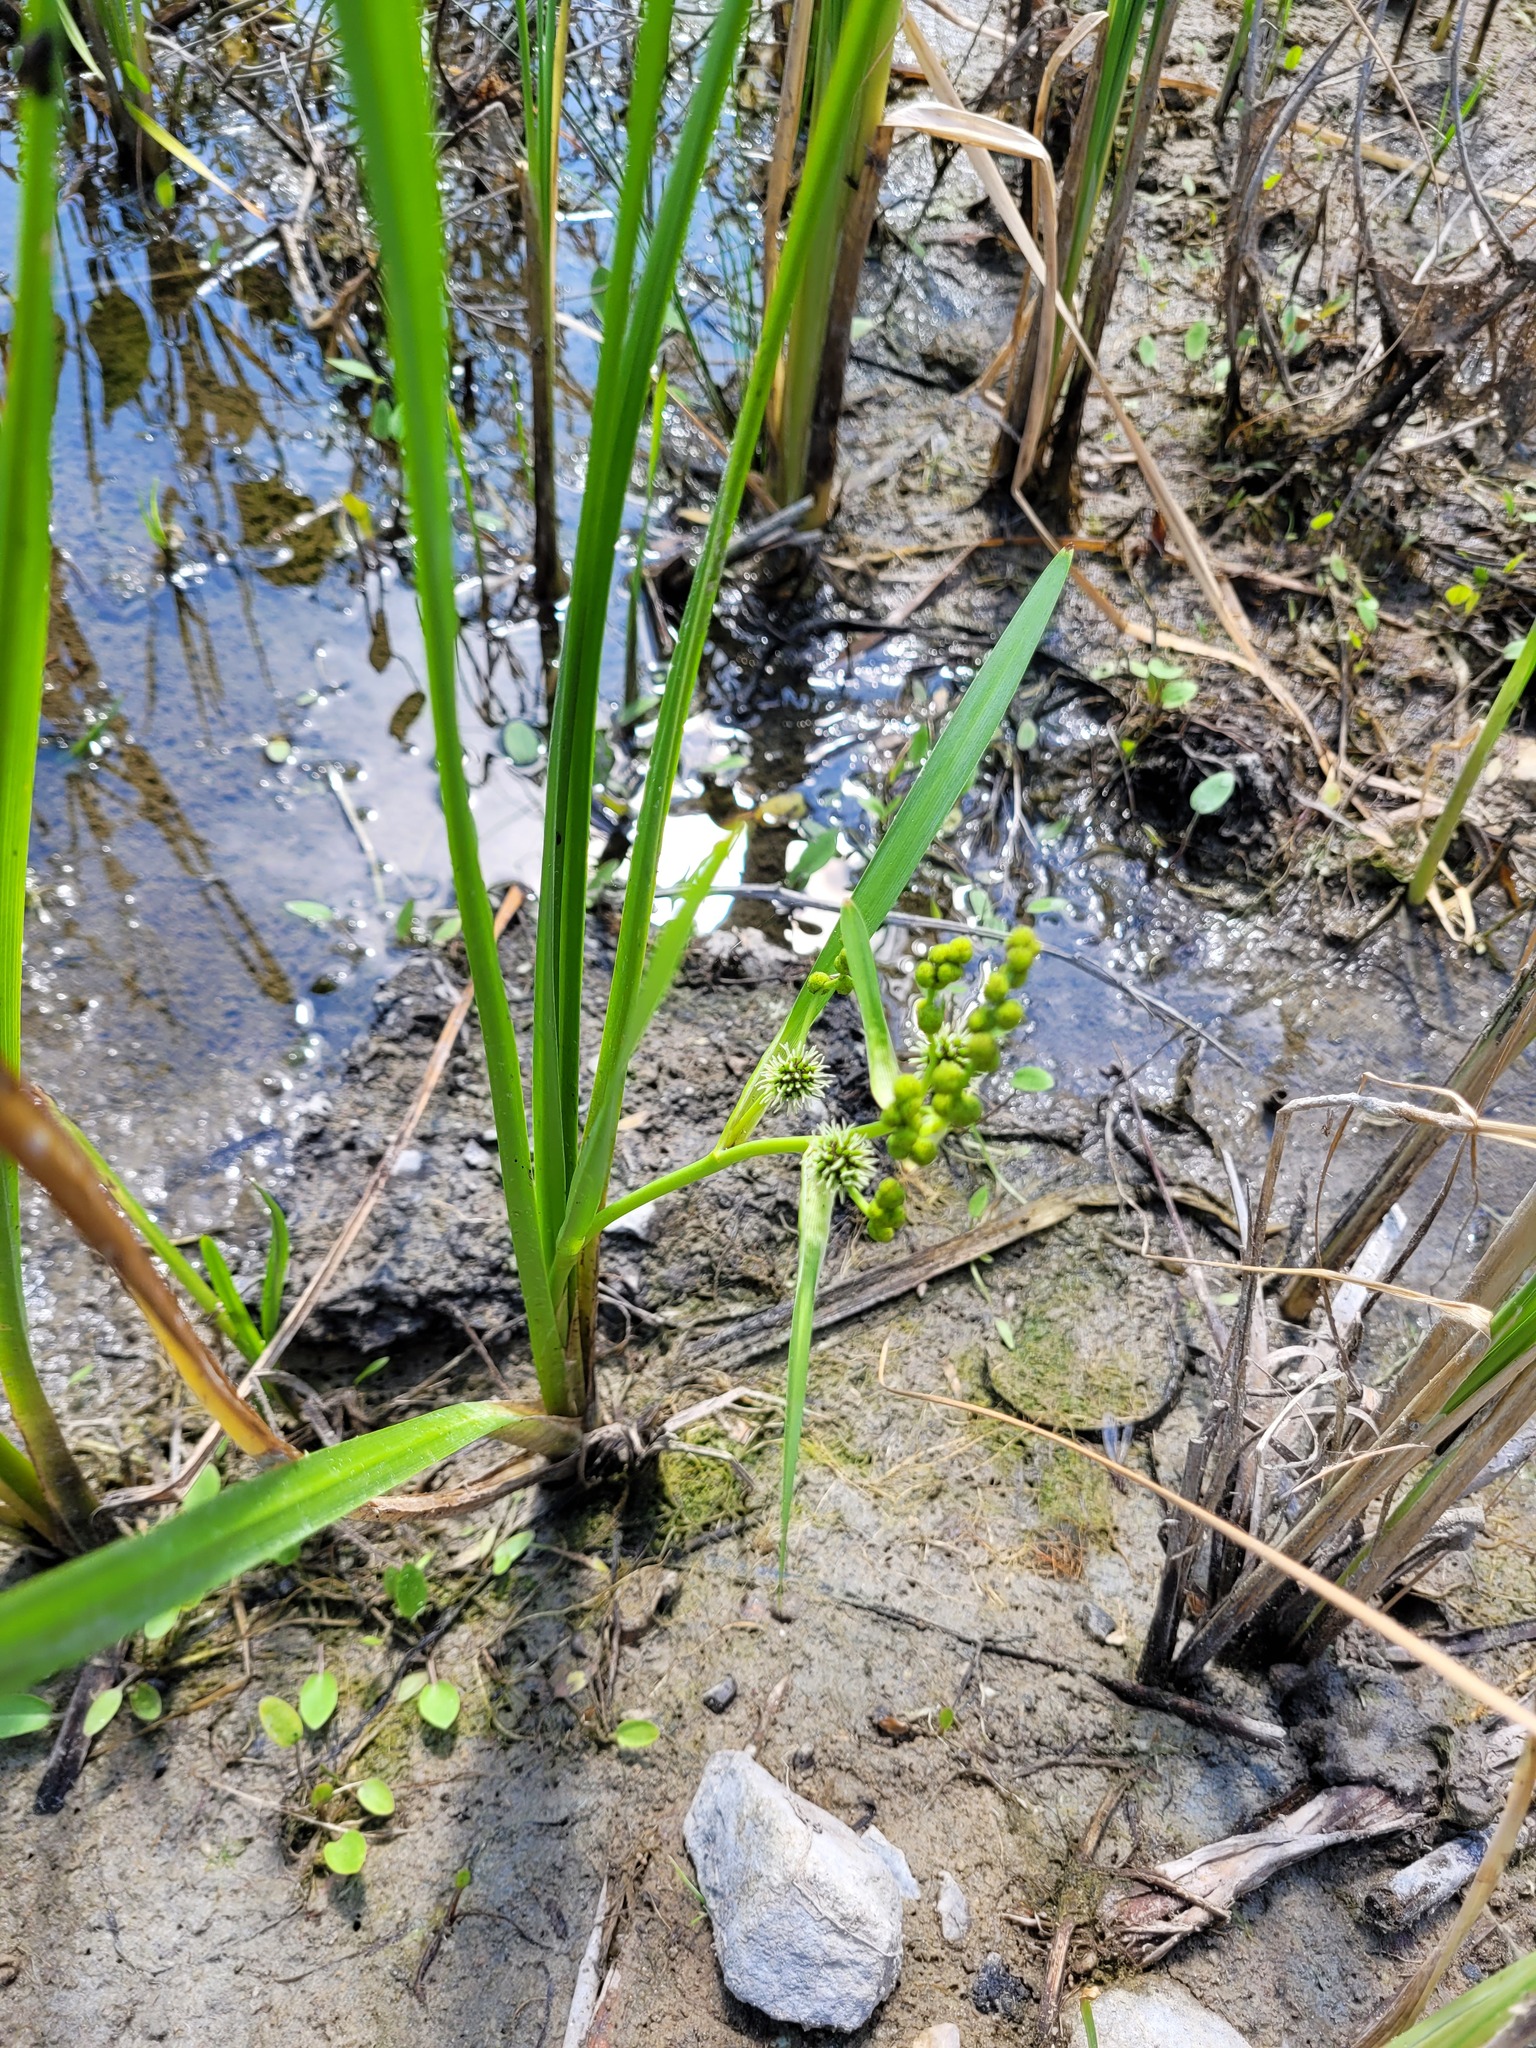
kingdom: Plantae
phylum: Tracheophyta
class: Liliopsida
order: Poales
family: Typhaceae
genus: Sparganium
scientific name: Sparganium erectum
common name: Branched bur-reed
